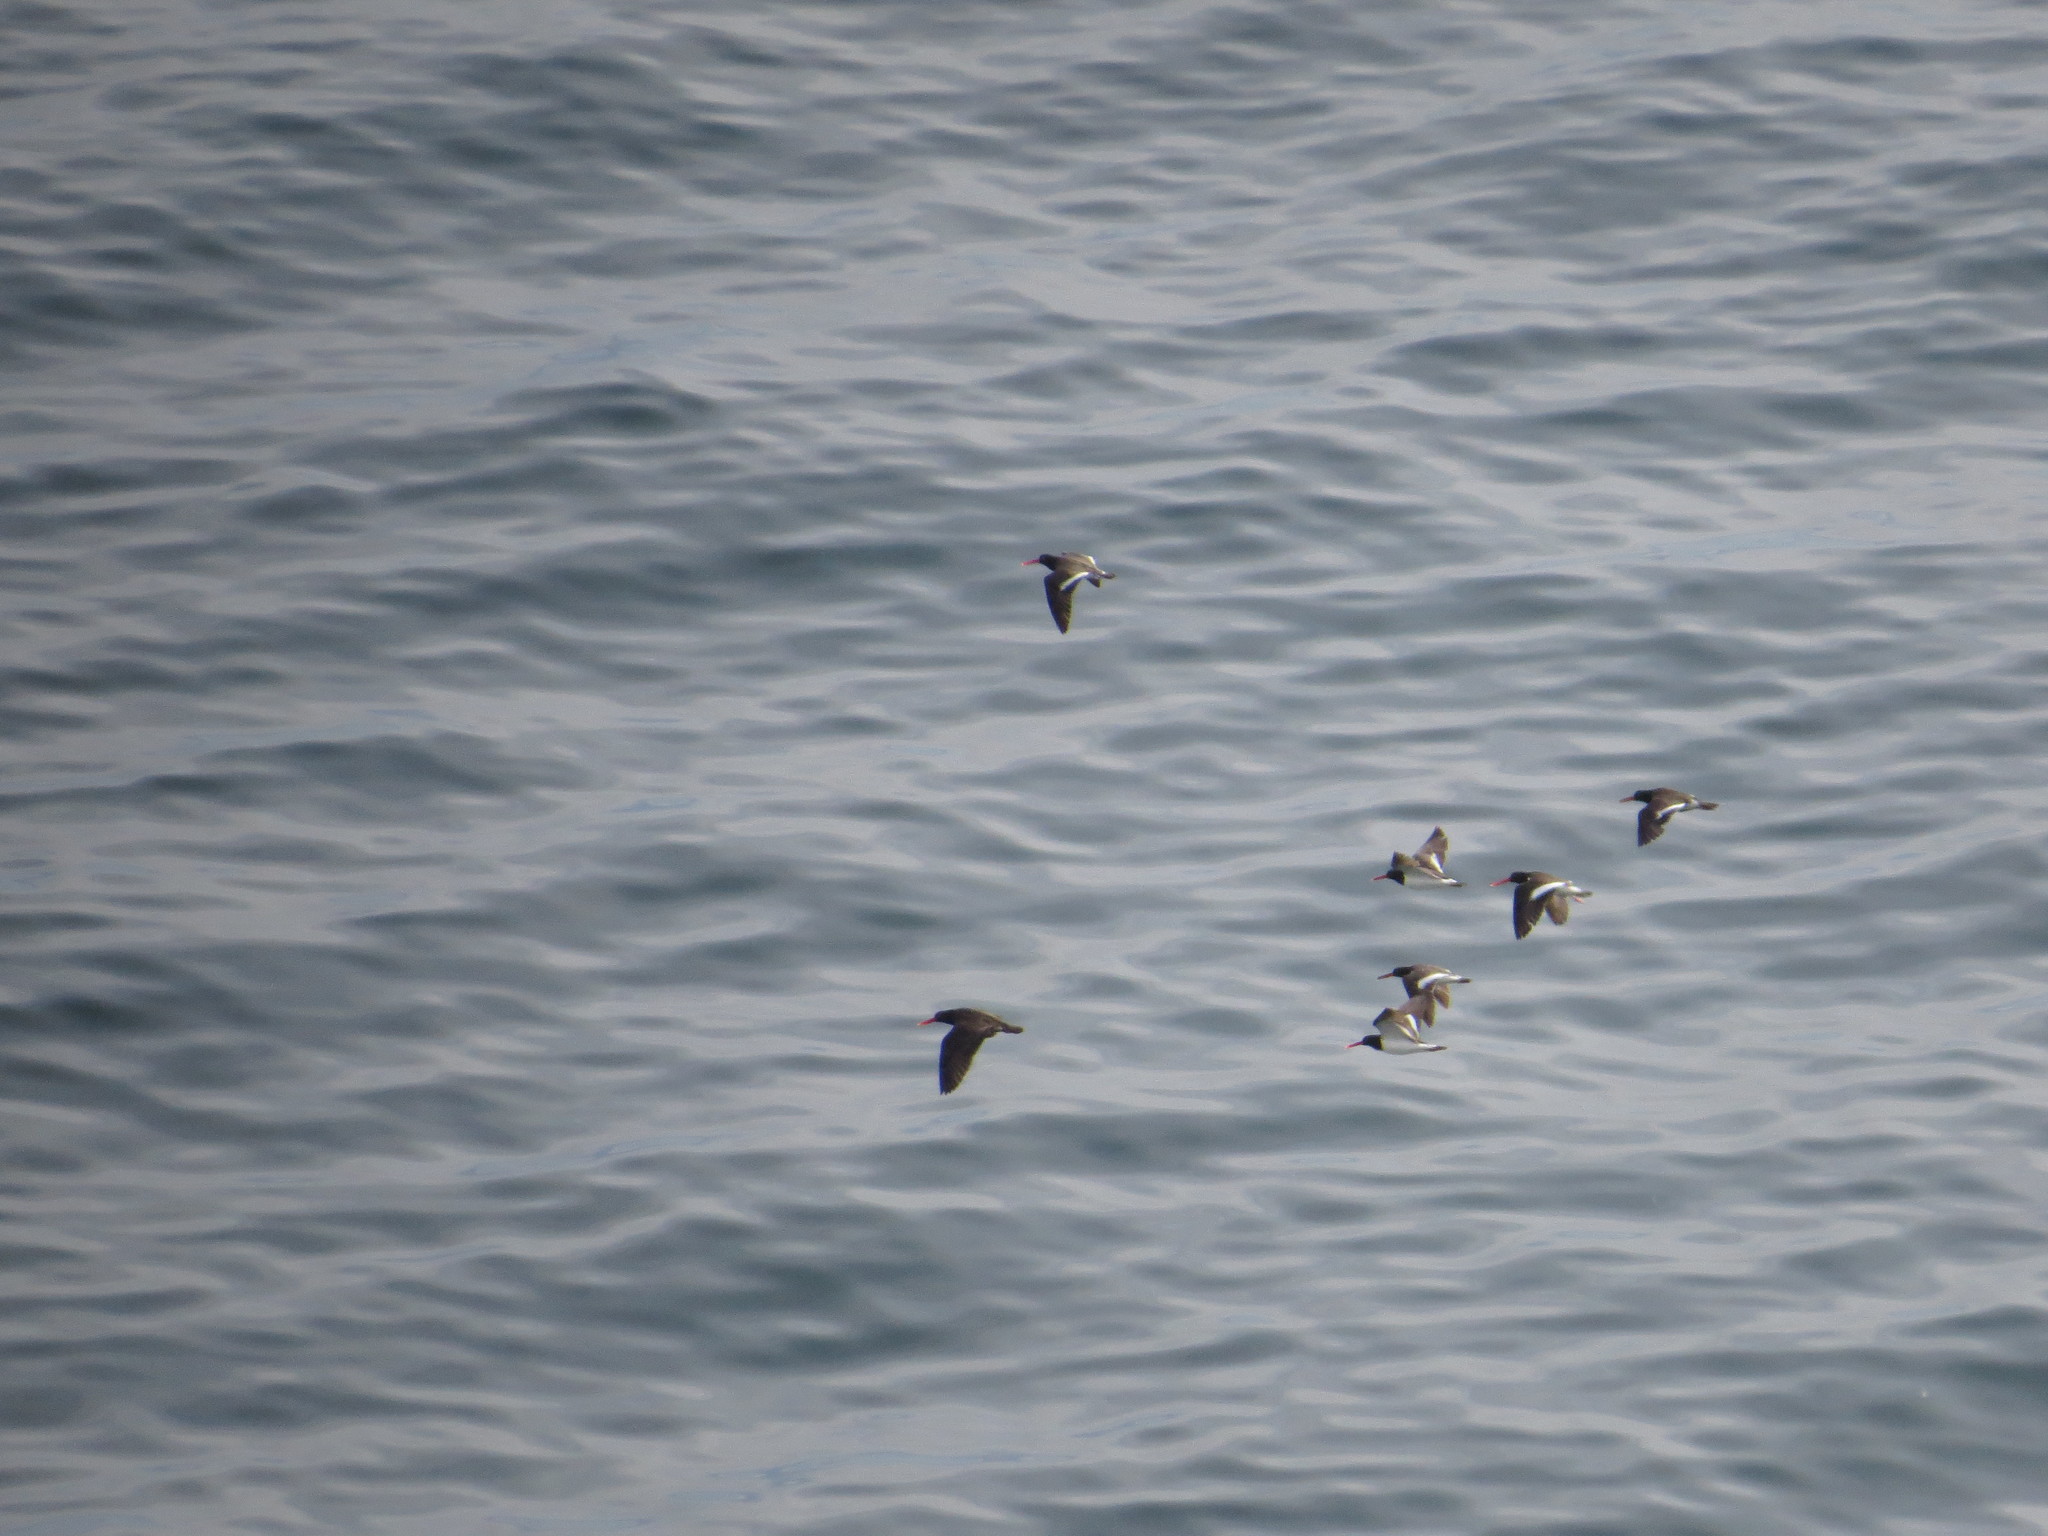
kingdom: Animalia
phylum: Chordata
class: Aves
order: Charadriiformes
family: Haematopodidae
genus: Haematopus
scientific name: Haematopus palliatus
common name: American oystercatcher
